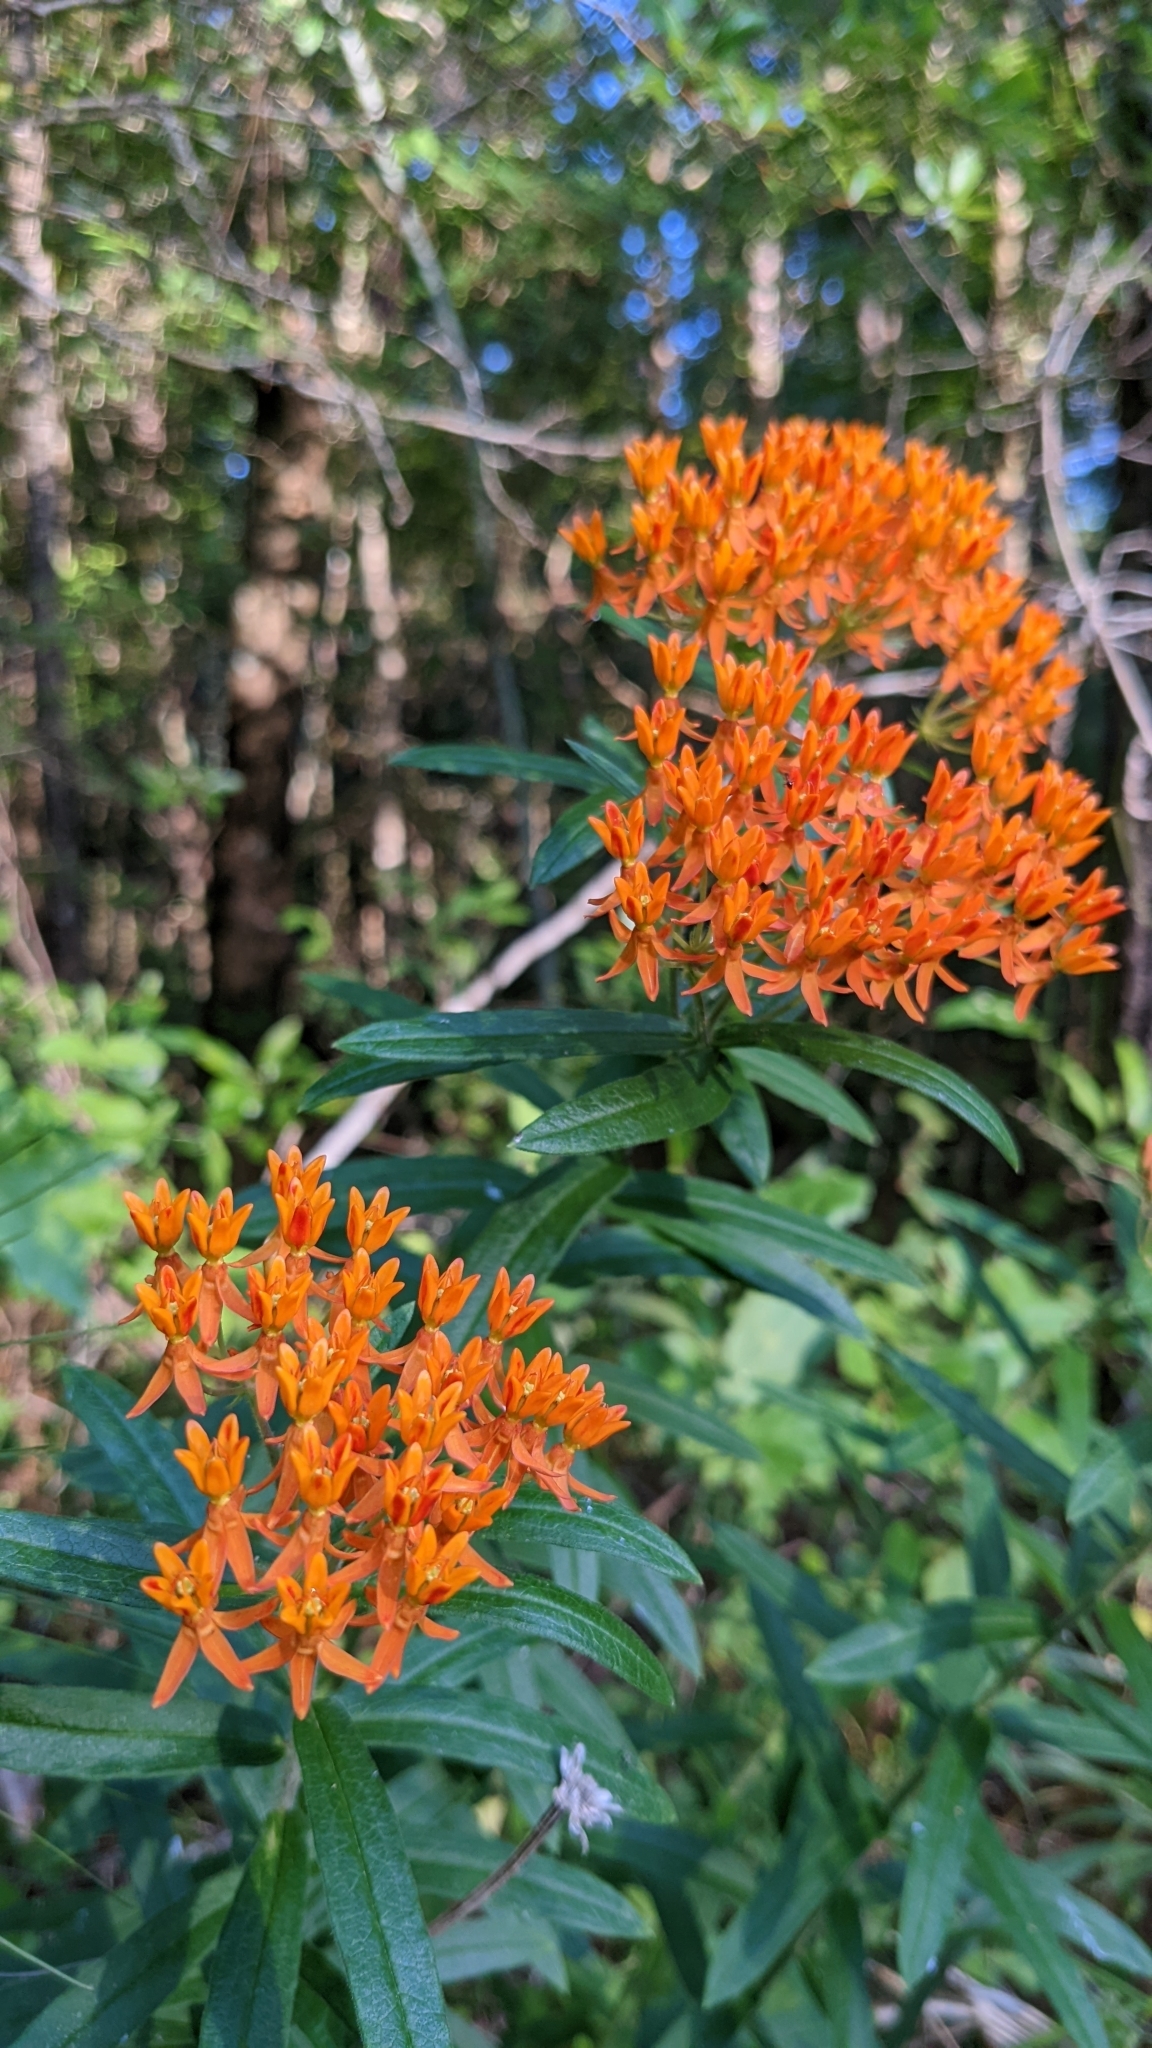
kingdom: Plantae
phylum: Tracheophyta
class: Magnoliopsida
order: Gentianales
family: Apocynaceae
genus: Asclepias
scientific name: Asclepias tuberosa
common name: Butterfly milkweed
